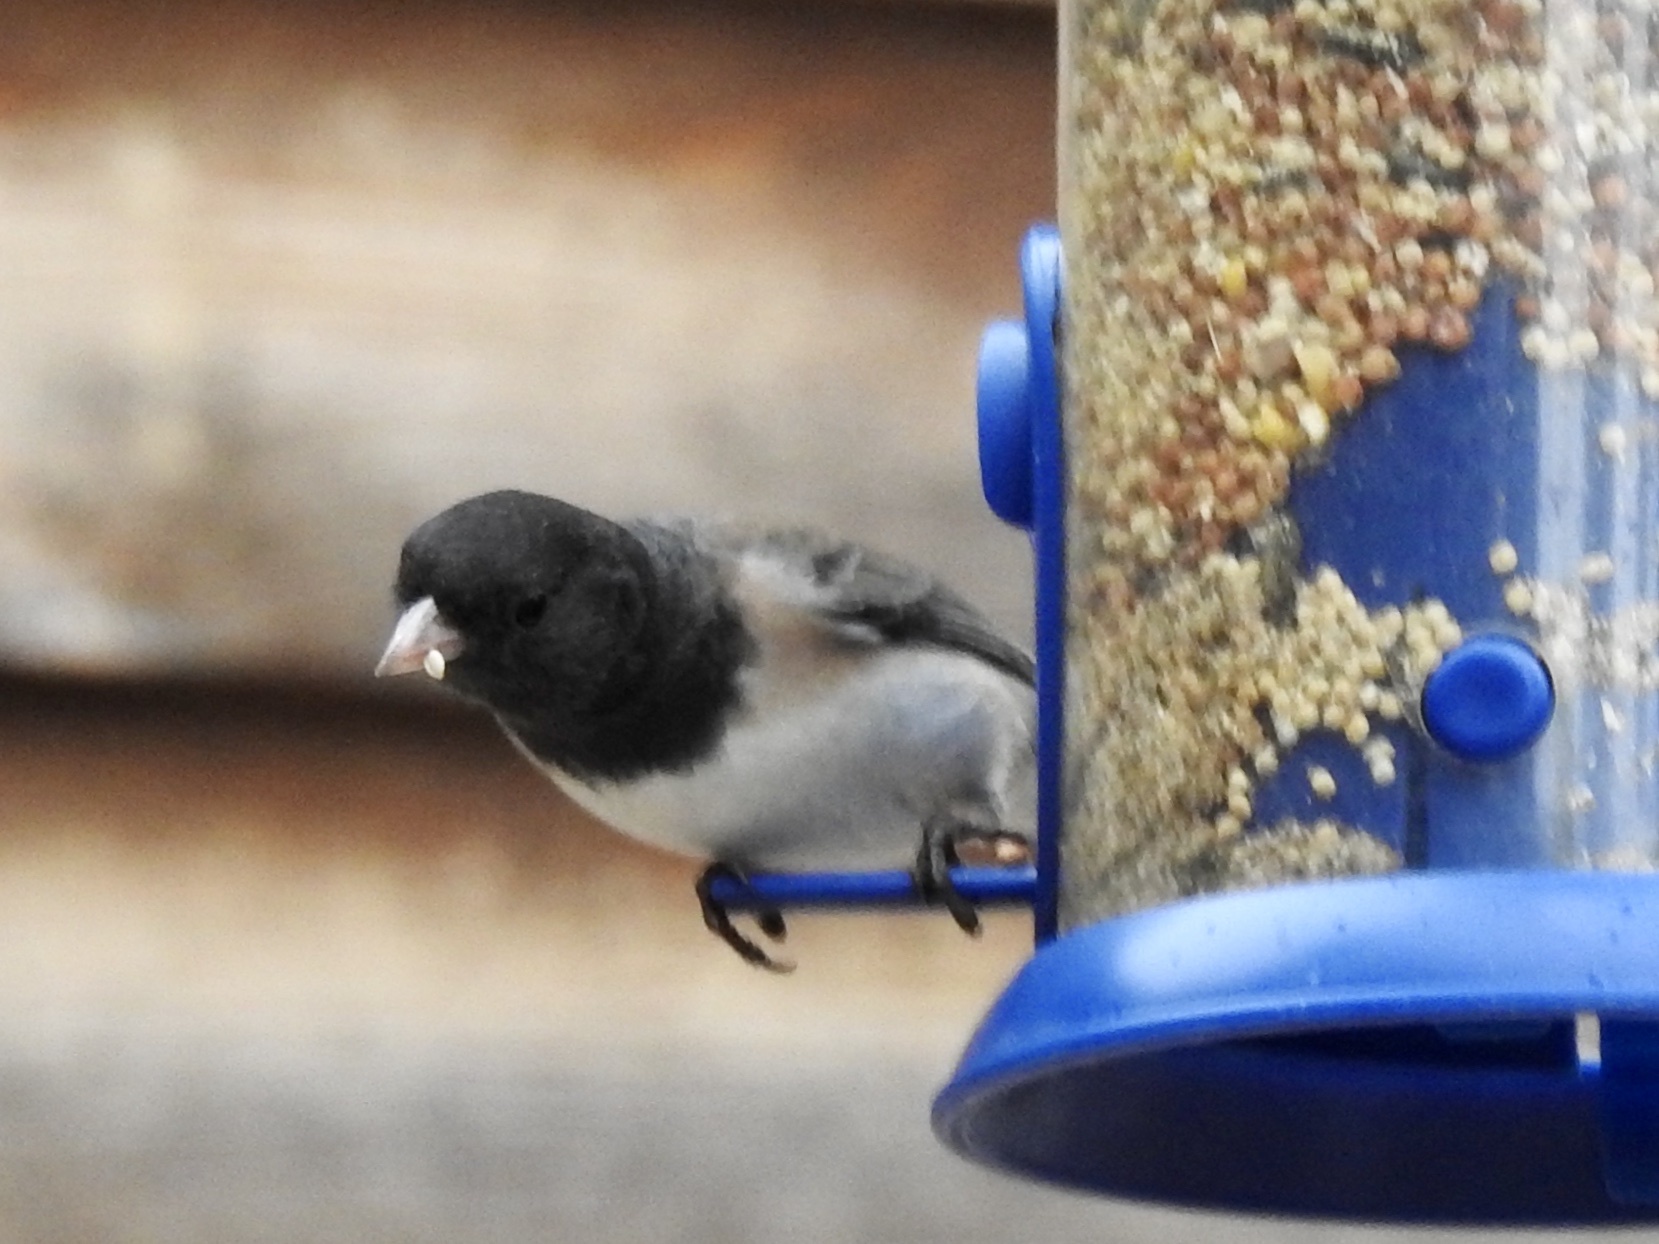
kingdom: Animalia
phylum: Chordata
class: Aves
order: Passeriformes
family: Passerellidae
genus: Junco
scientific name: Junco hyemalis
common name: Dark-eyed junco
